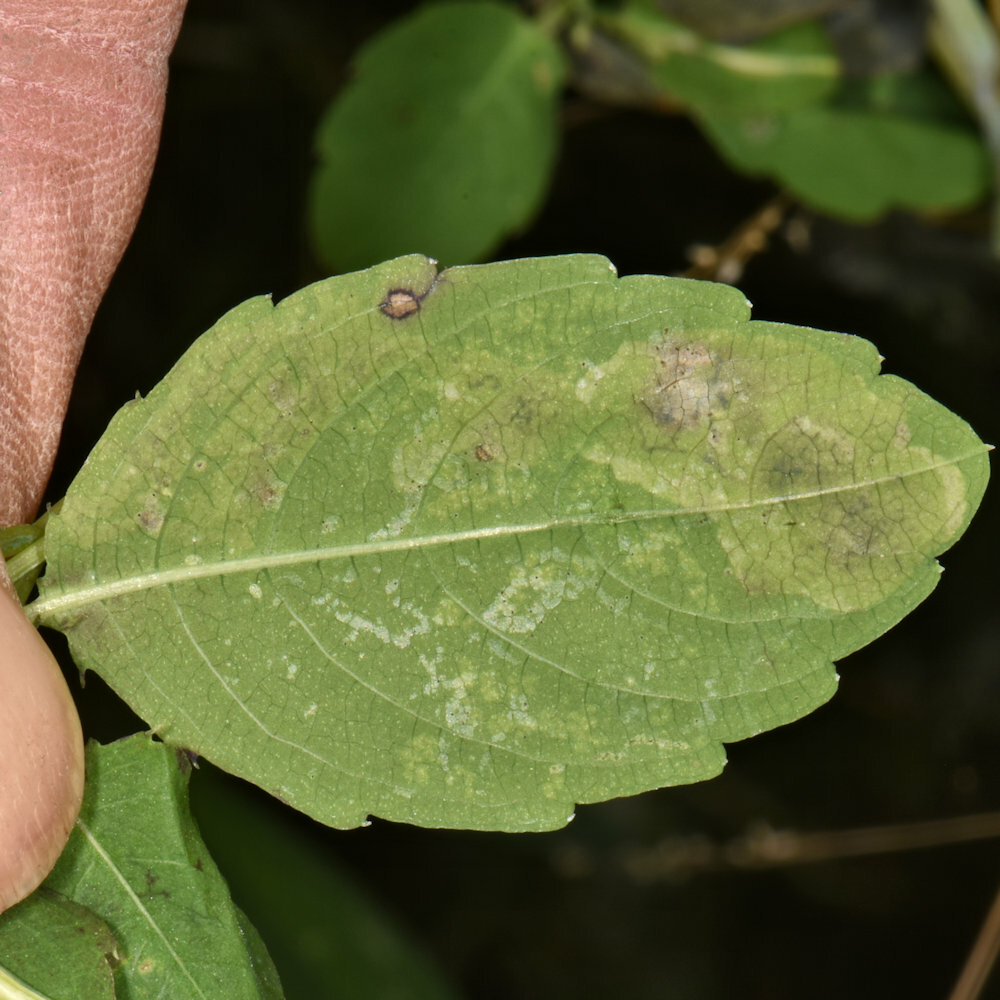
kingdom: Animalia
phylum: Arthropoda
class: Insecta
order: Diptera
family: Agromyzidae
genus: Phytoliriomyza
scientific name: Phytoliriomyza melampyga
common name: Jewelweed leaf-miner fly
